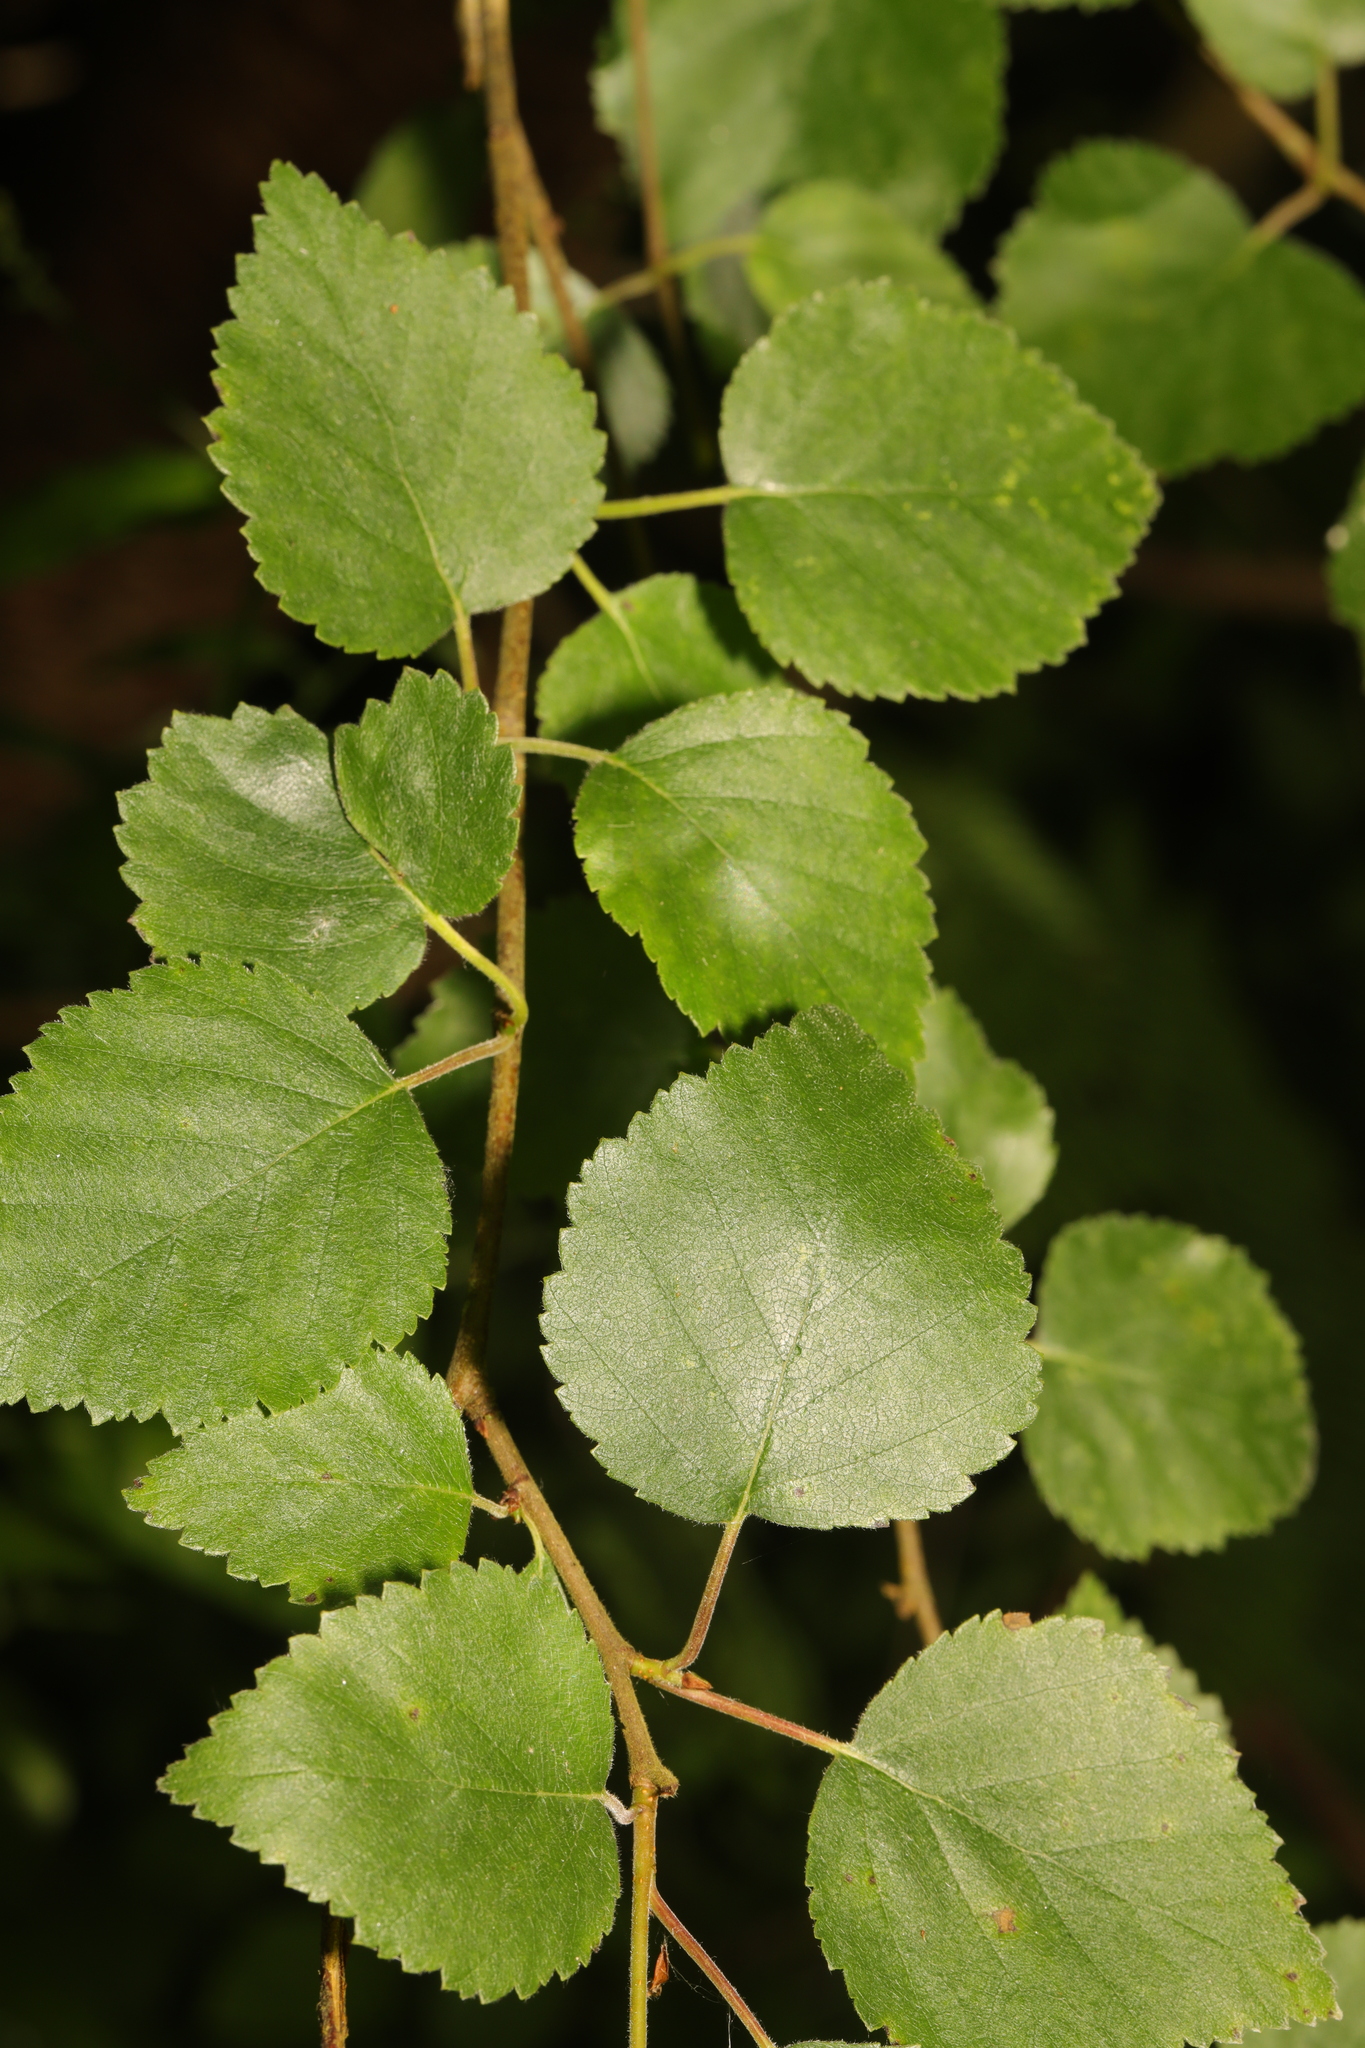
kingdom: Plantae
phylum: Tracheophyta
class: Magnoliopsida
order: Fagales
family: Betulaceae
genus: Betula
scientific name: Betula pubescens
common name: Downy birch
